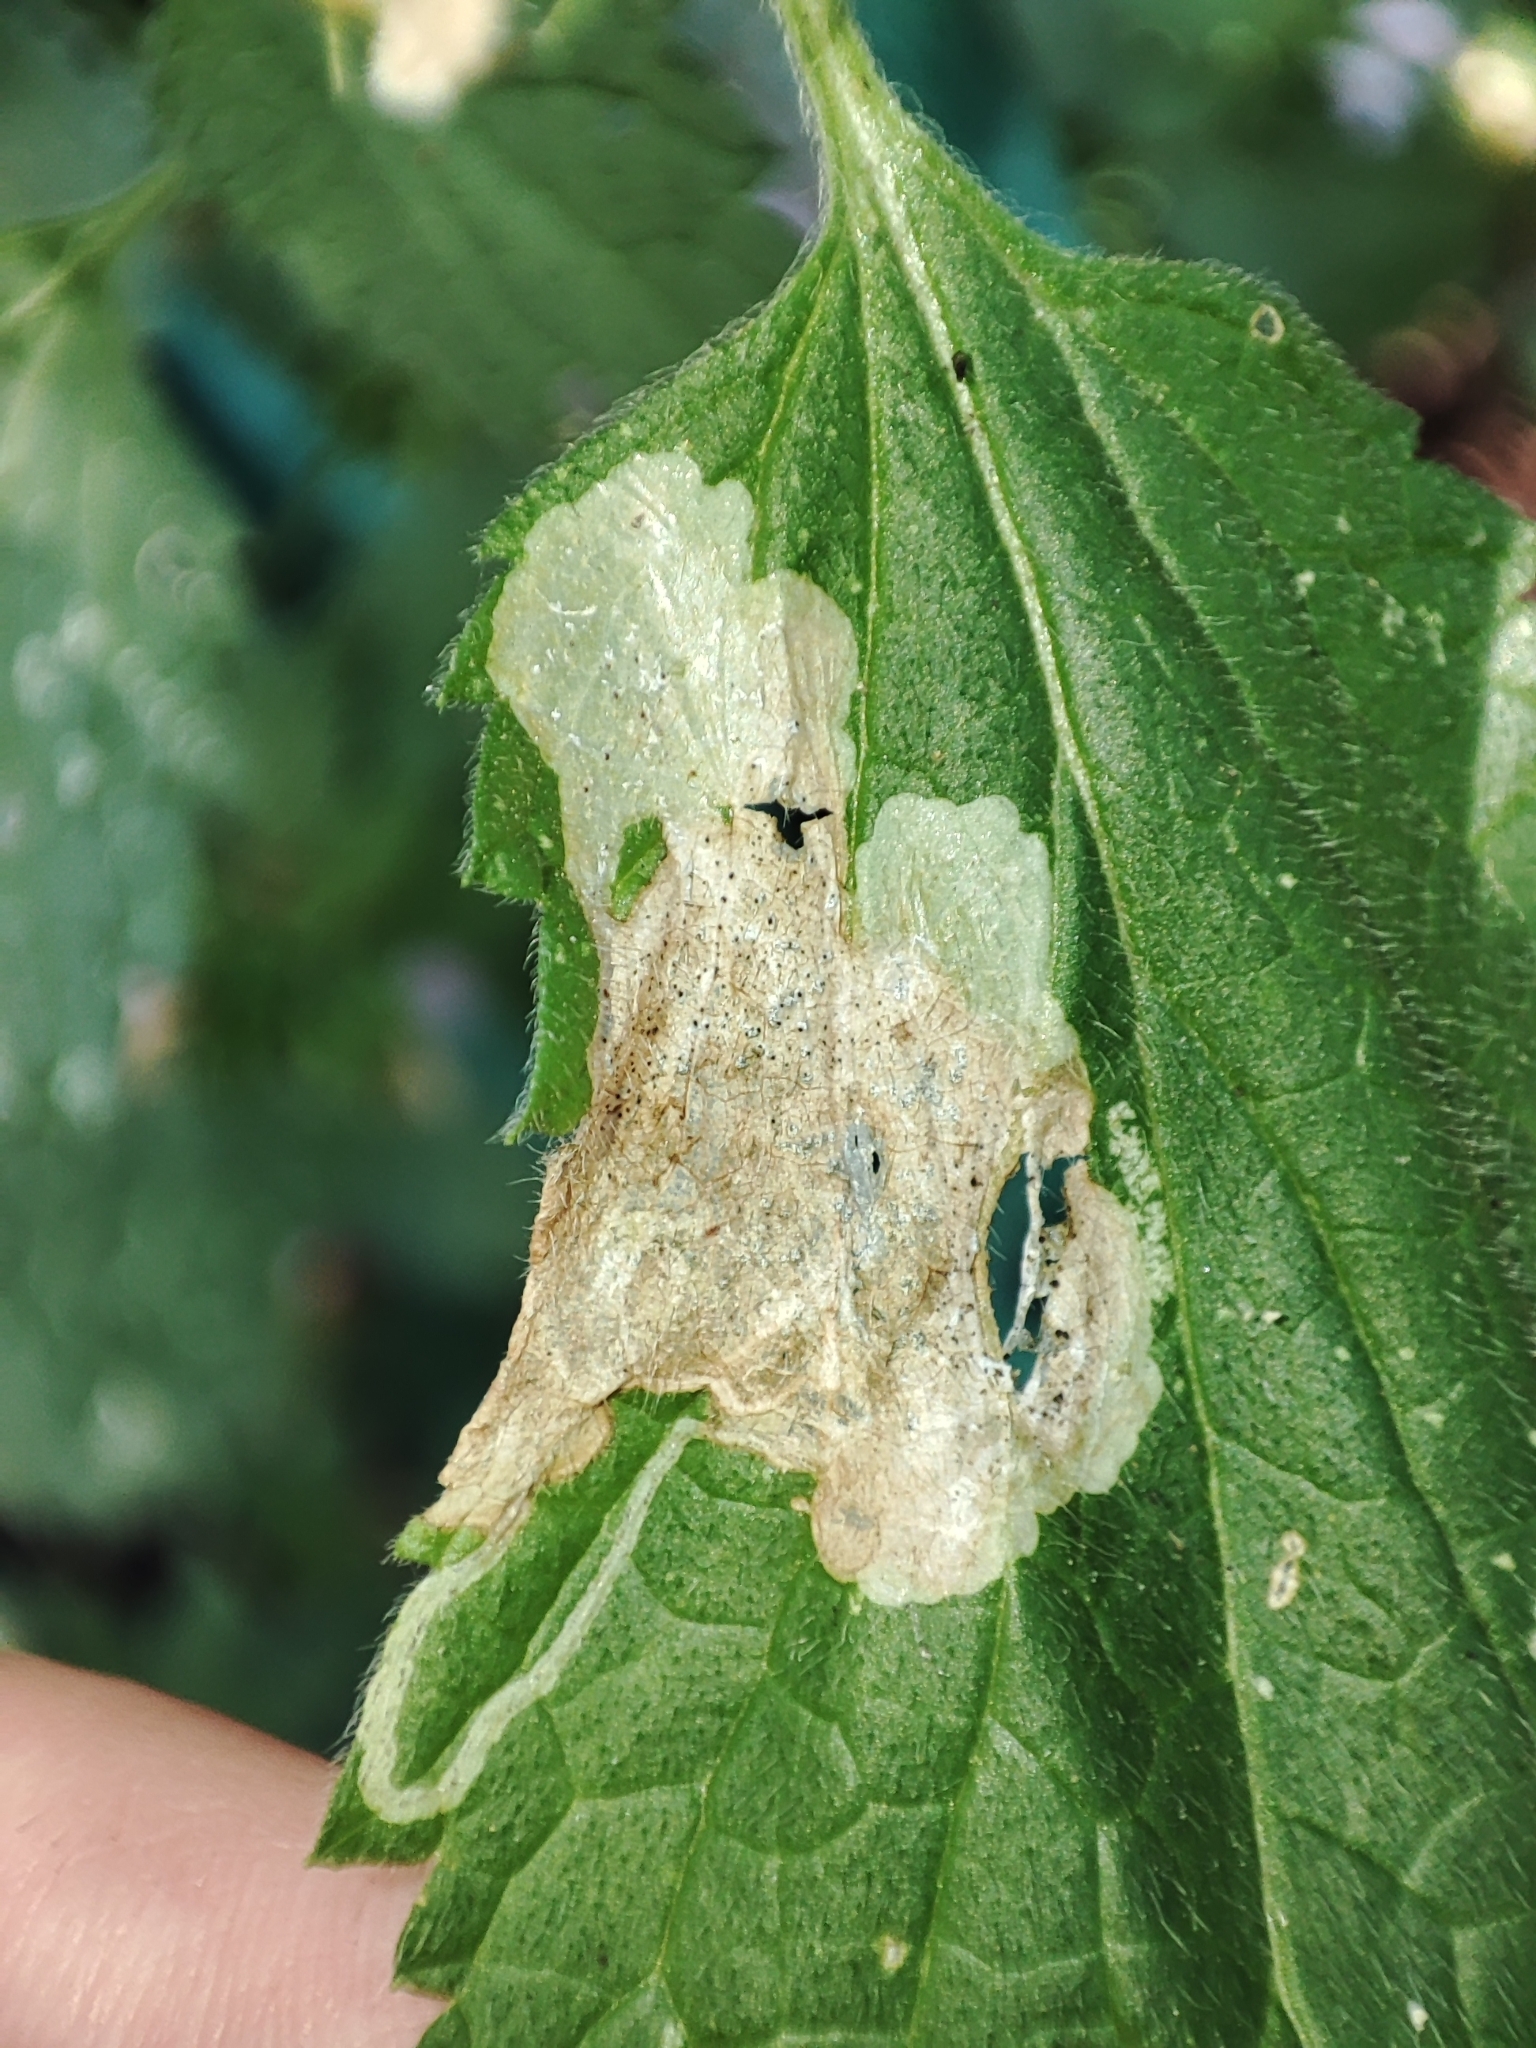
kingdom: Plantae
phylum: Tracheophyta
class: Magnoliopsida
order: Lamiales
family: Lamiaceae
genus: Ballota
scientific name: Ballota nigra
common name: Black horehound
